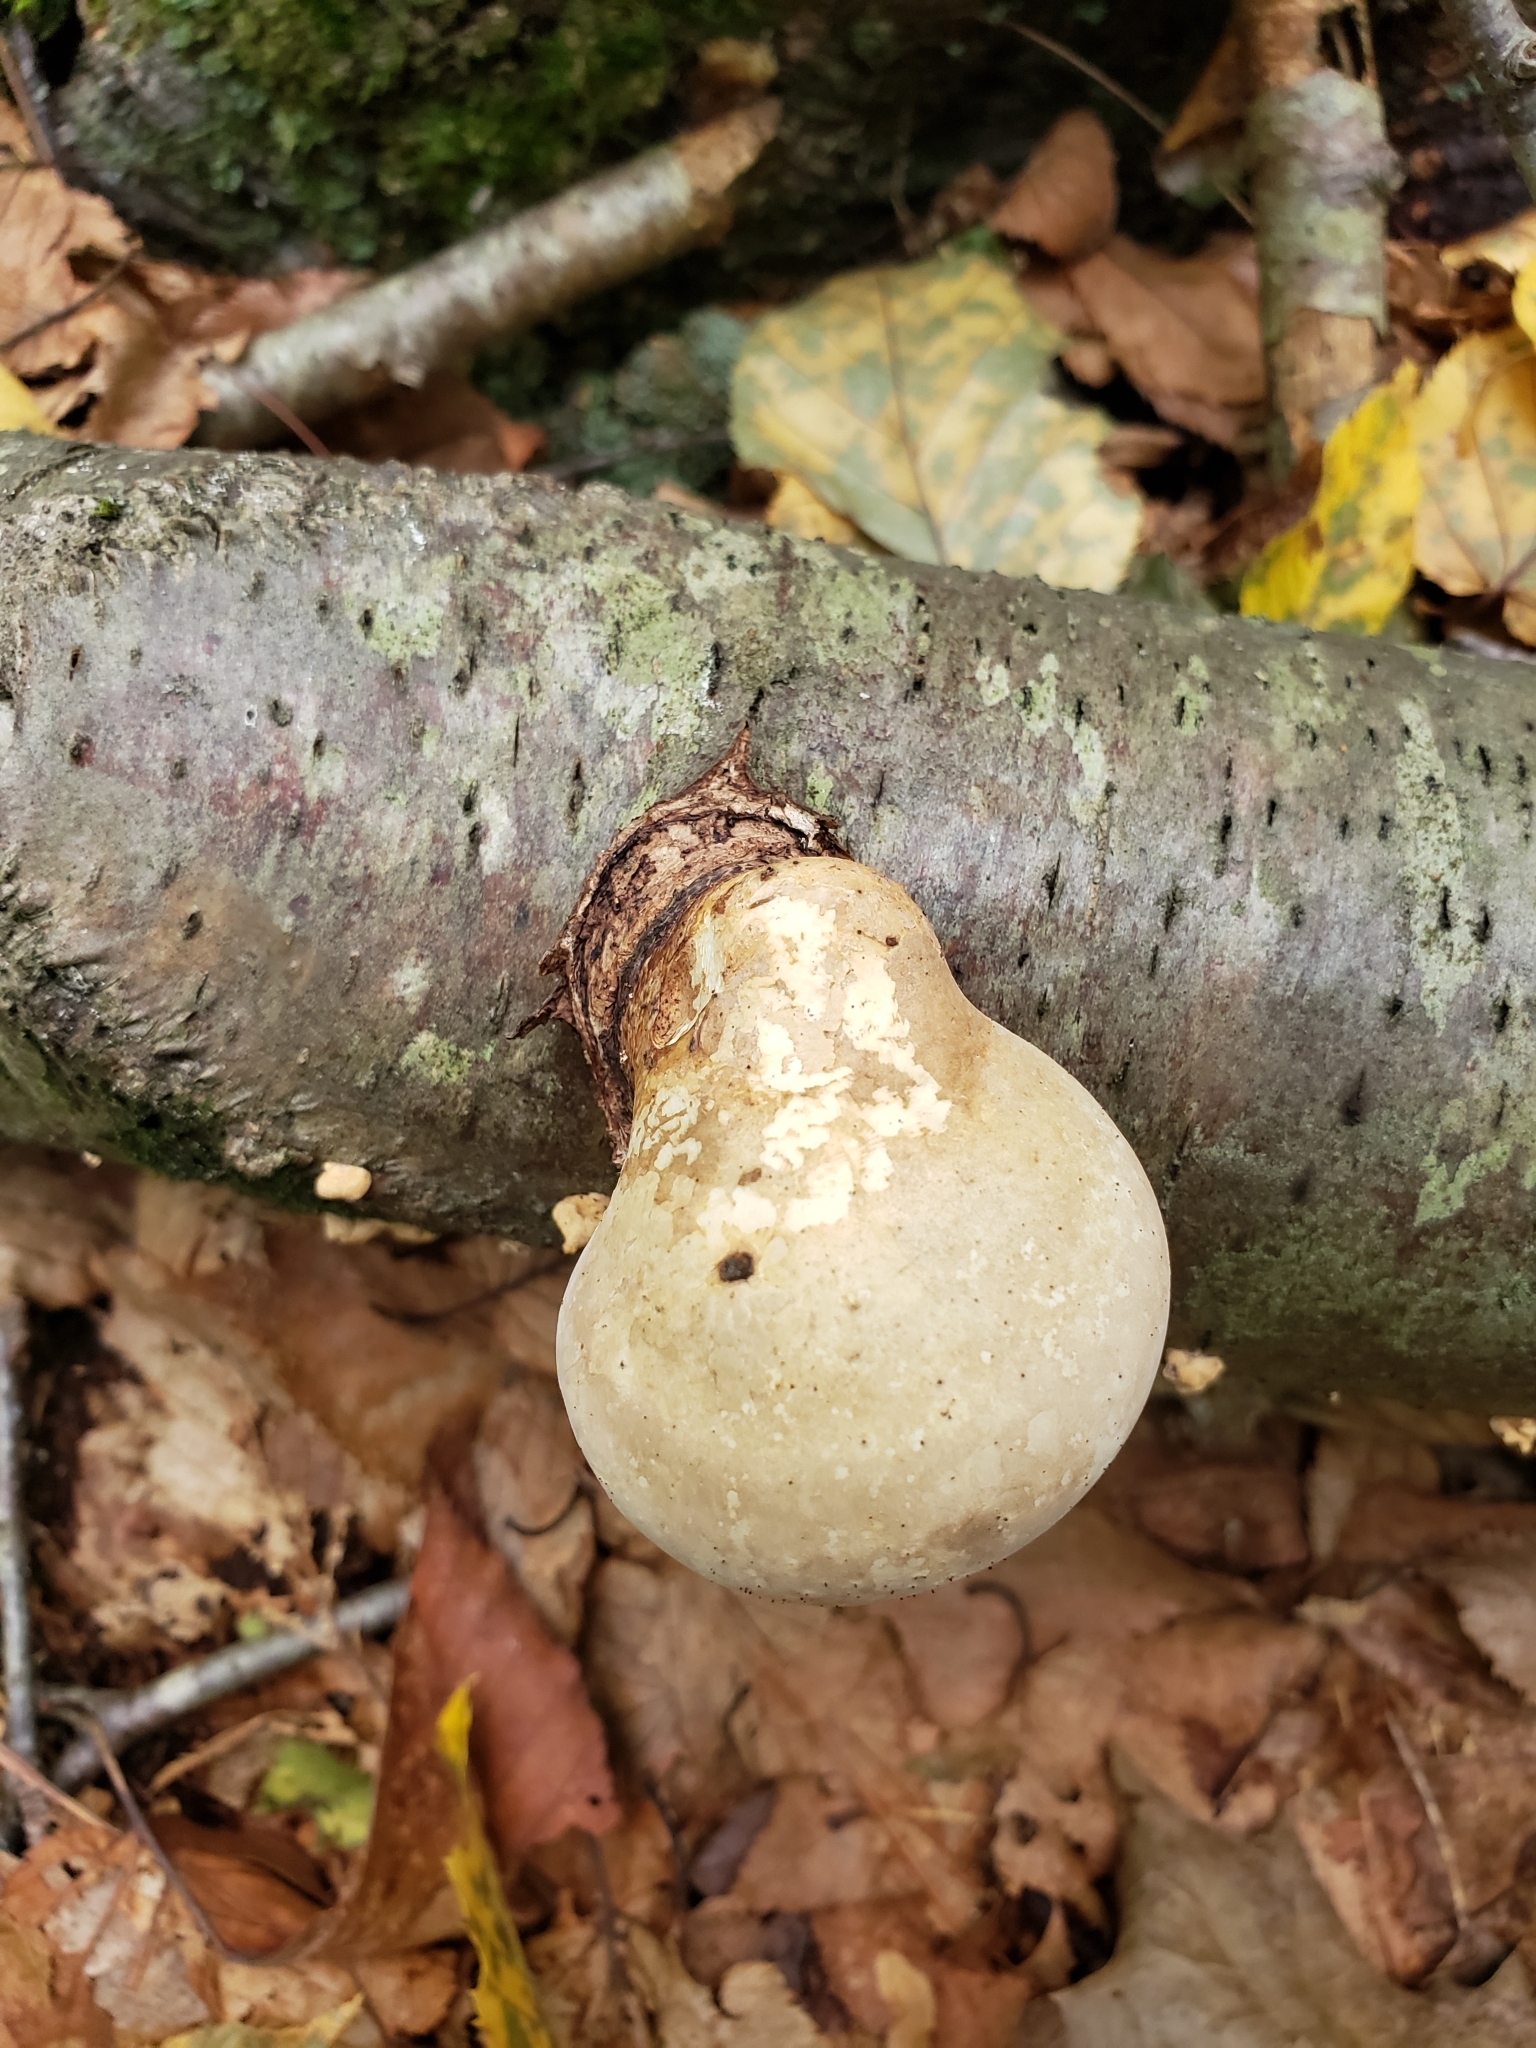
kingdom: Fungi
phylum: Basidiomycota
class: Agaricomycetes
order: Polyporales
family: Fomitopsidaceae
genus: Fomitopsis
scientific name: Fomitopsis betulina
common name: Birch polypore
